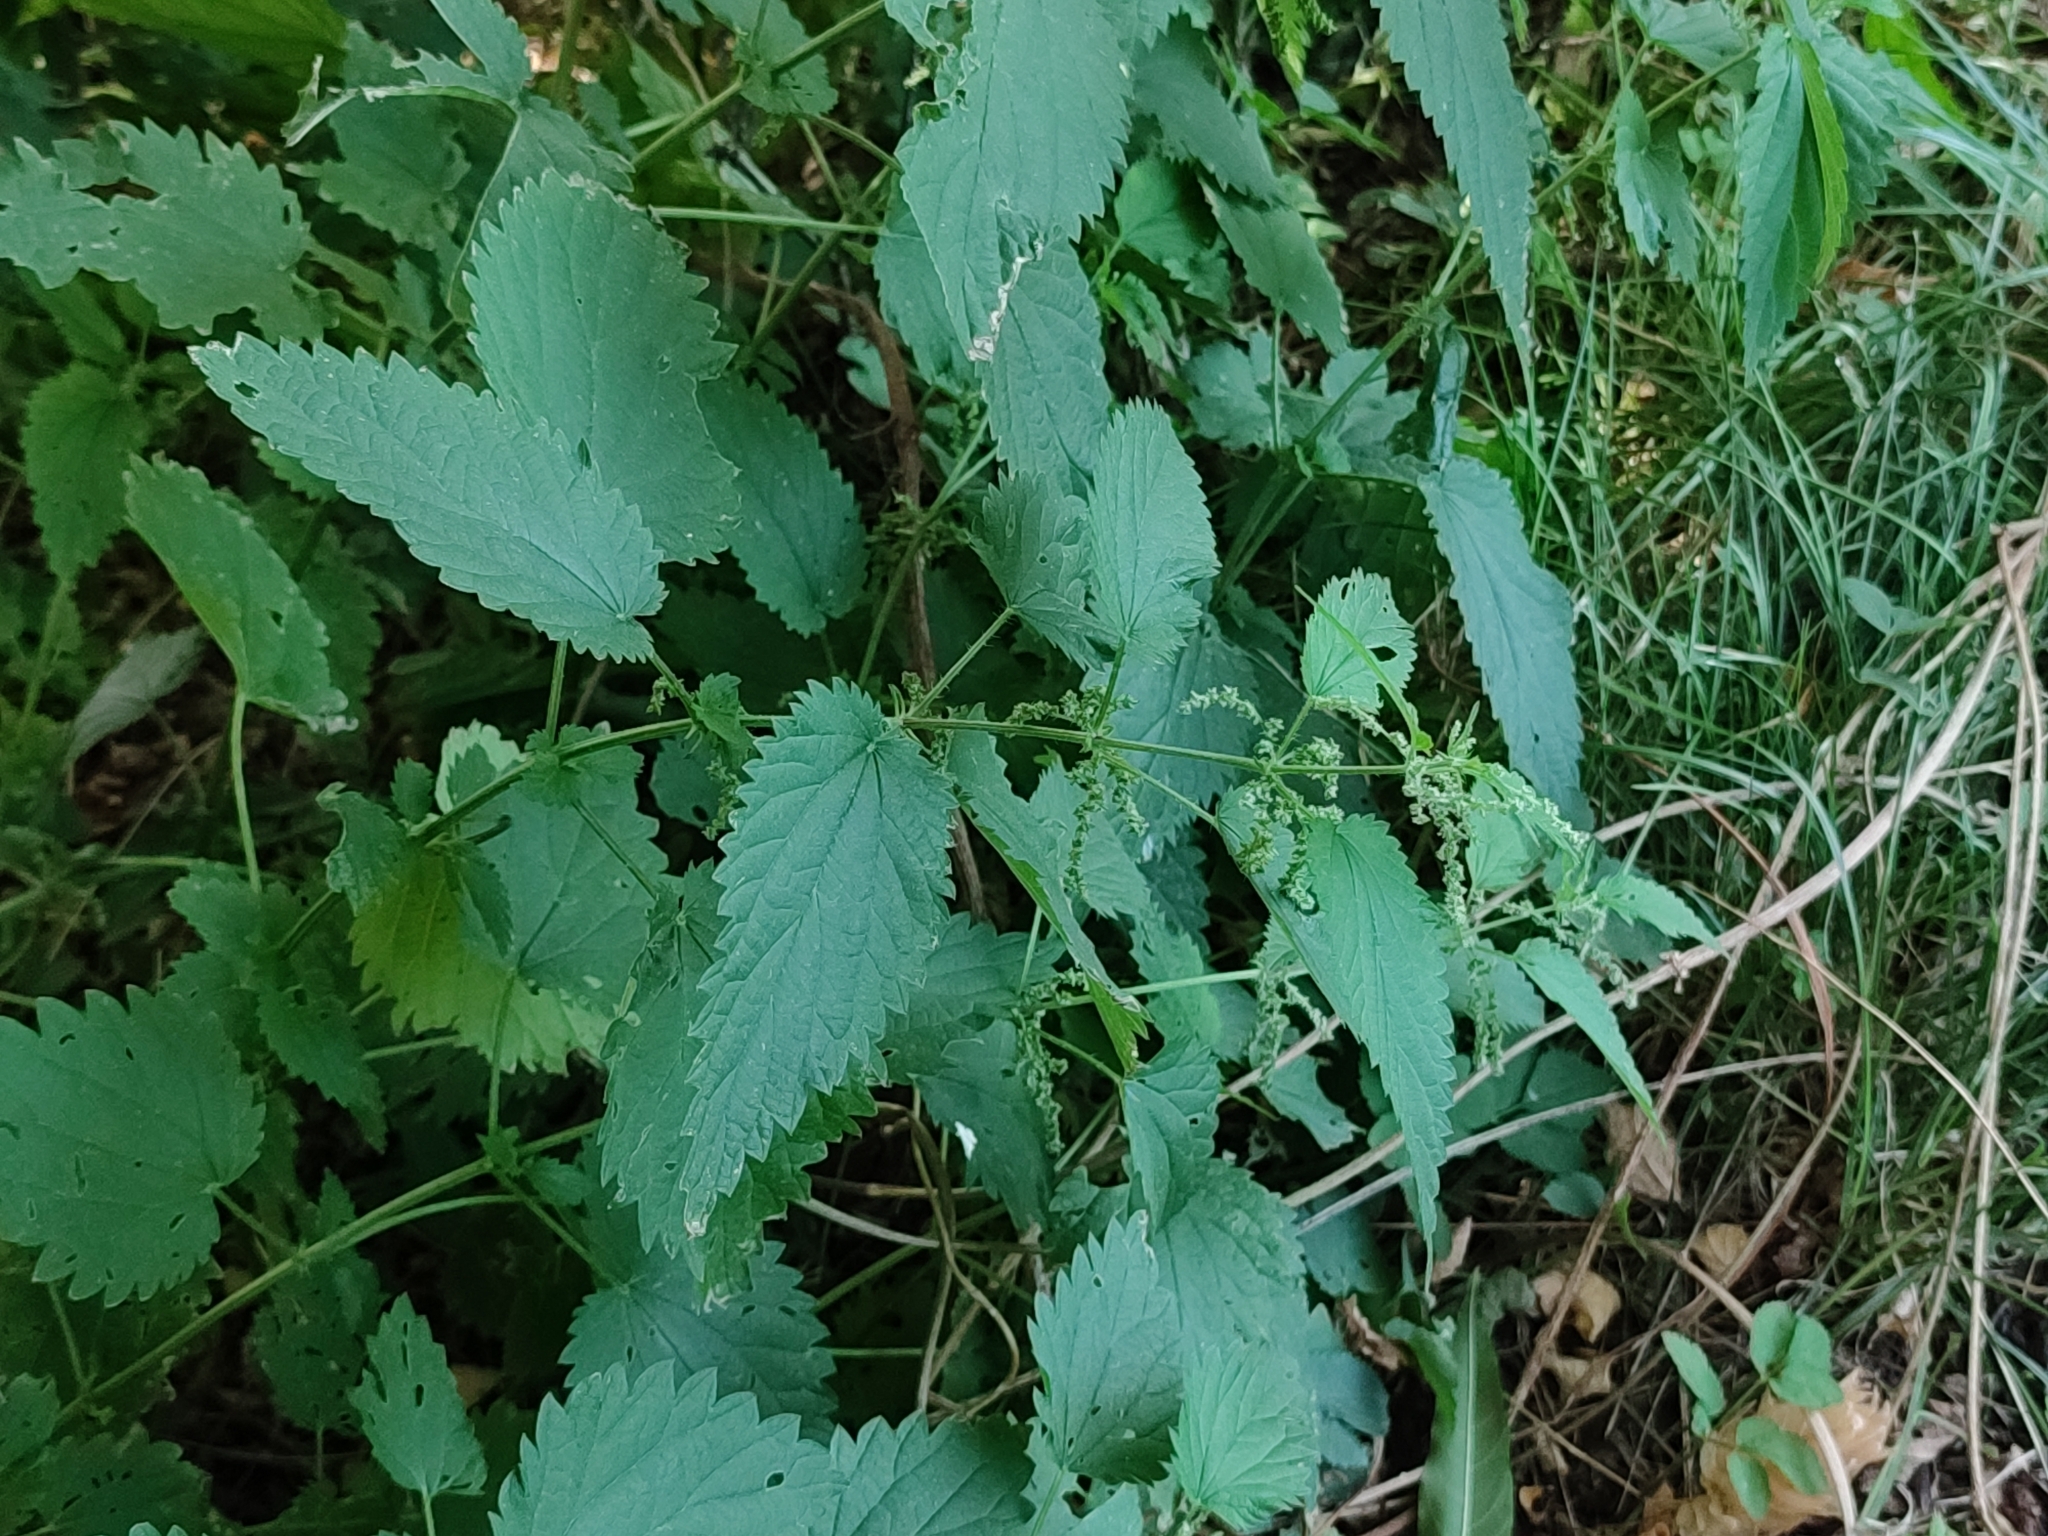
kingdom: Plantae
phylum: Tracheophyta
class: Magnoliopsida
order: Rosales
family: Urticaceae
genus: Urtica
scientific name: Urtica dioica
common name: Common nettle
